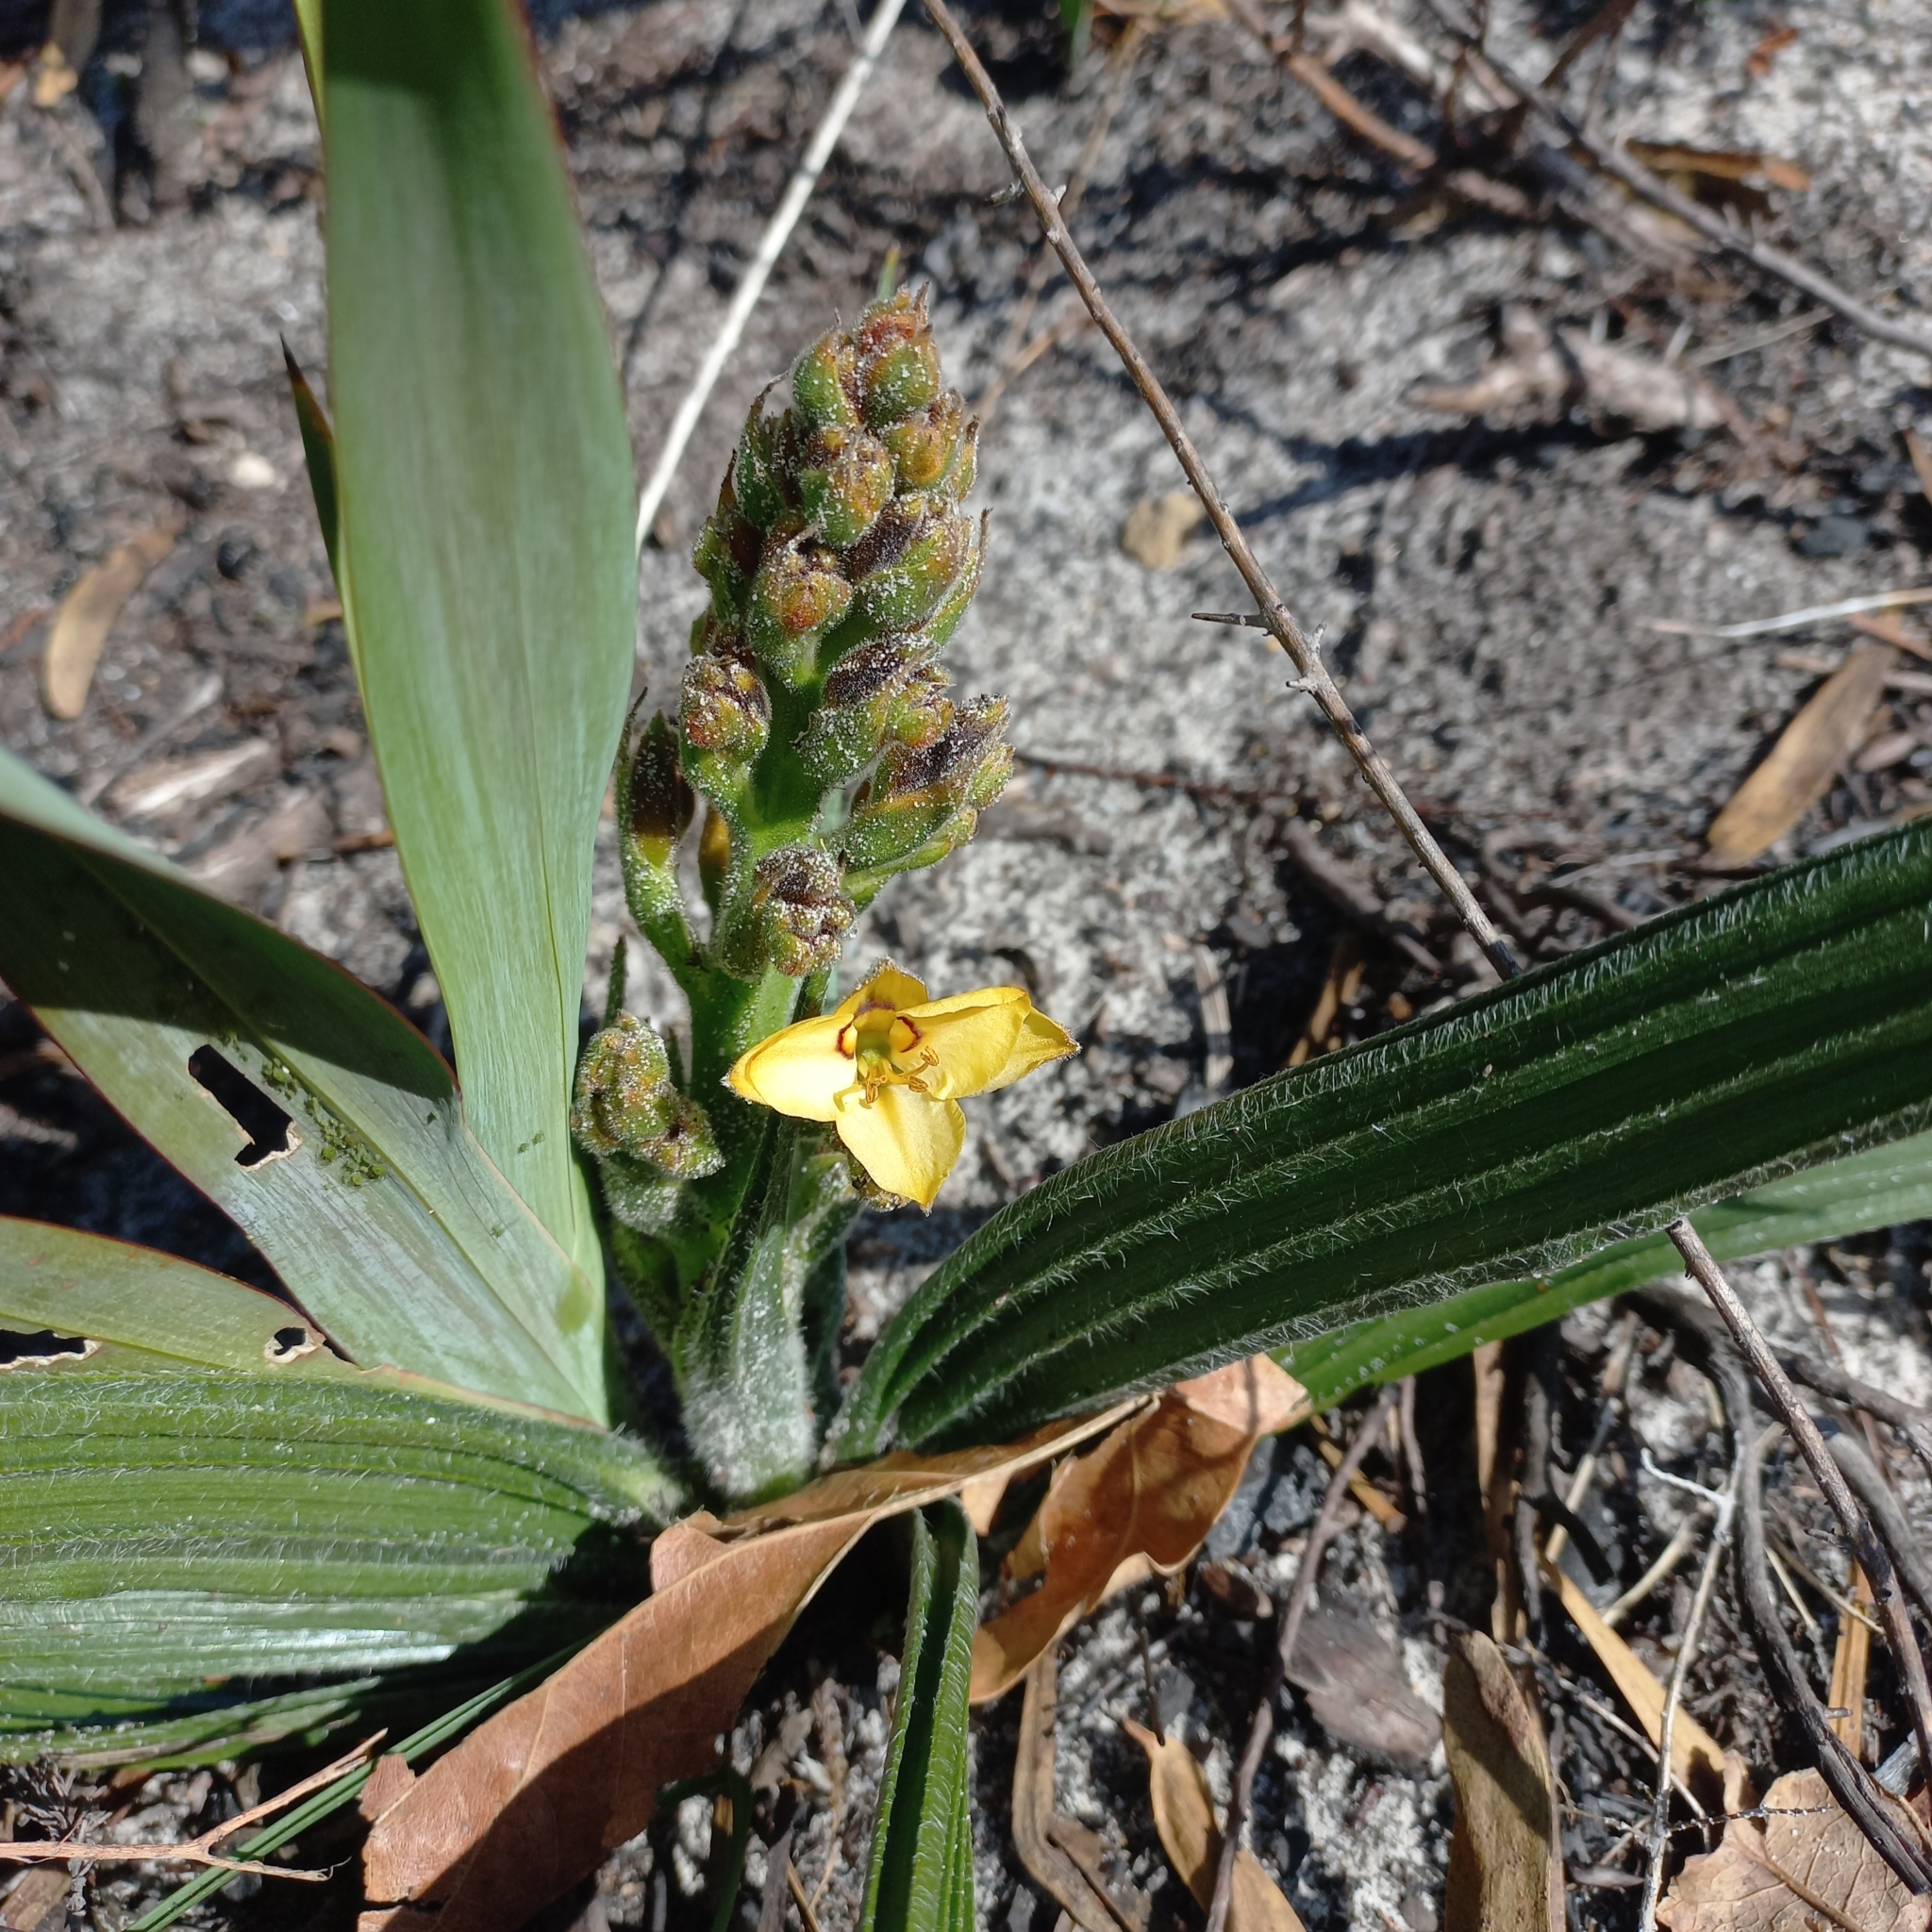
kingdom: Plantae
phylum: Tracheophyta
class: Liliopsida
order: Commelinales
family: Haemodoraceae
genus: Wachendorfia
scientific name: Wachendorfia paniculata
